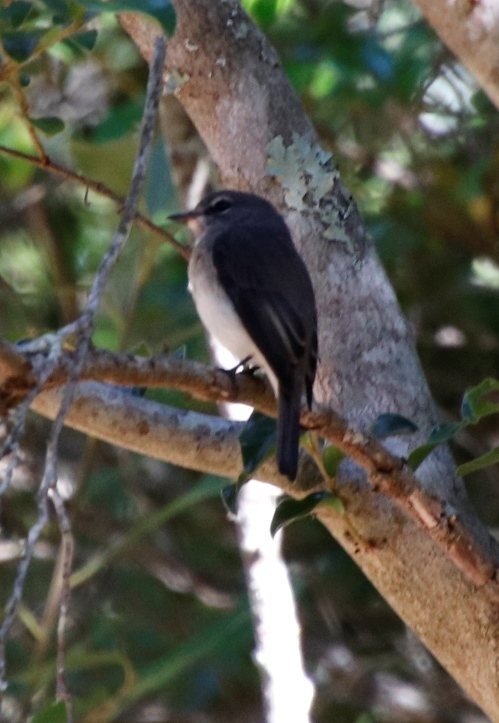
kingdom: Animalia
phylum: Chordata
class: Aves
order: Passeriformes
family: Muscicapidae
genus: Muscicapa
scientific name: Muscicapa adusta
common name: African dusky flycatcher
